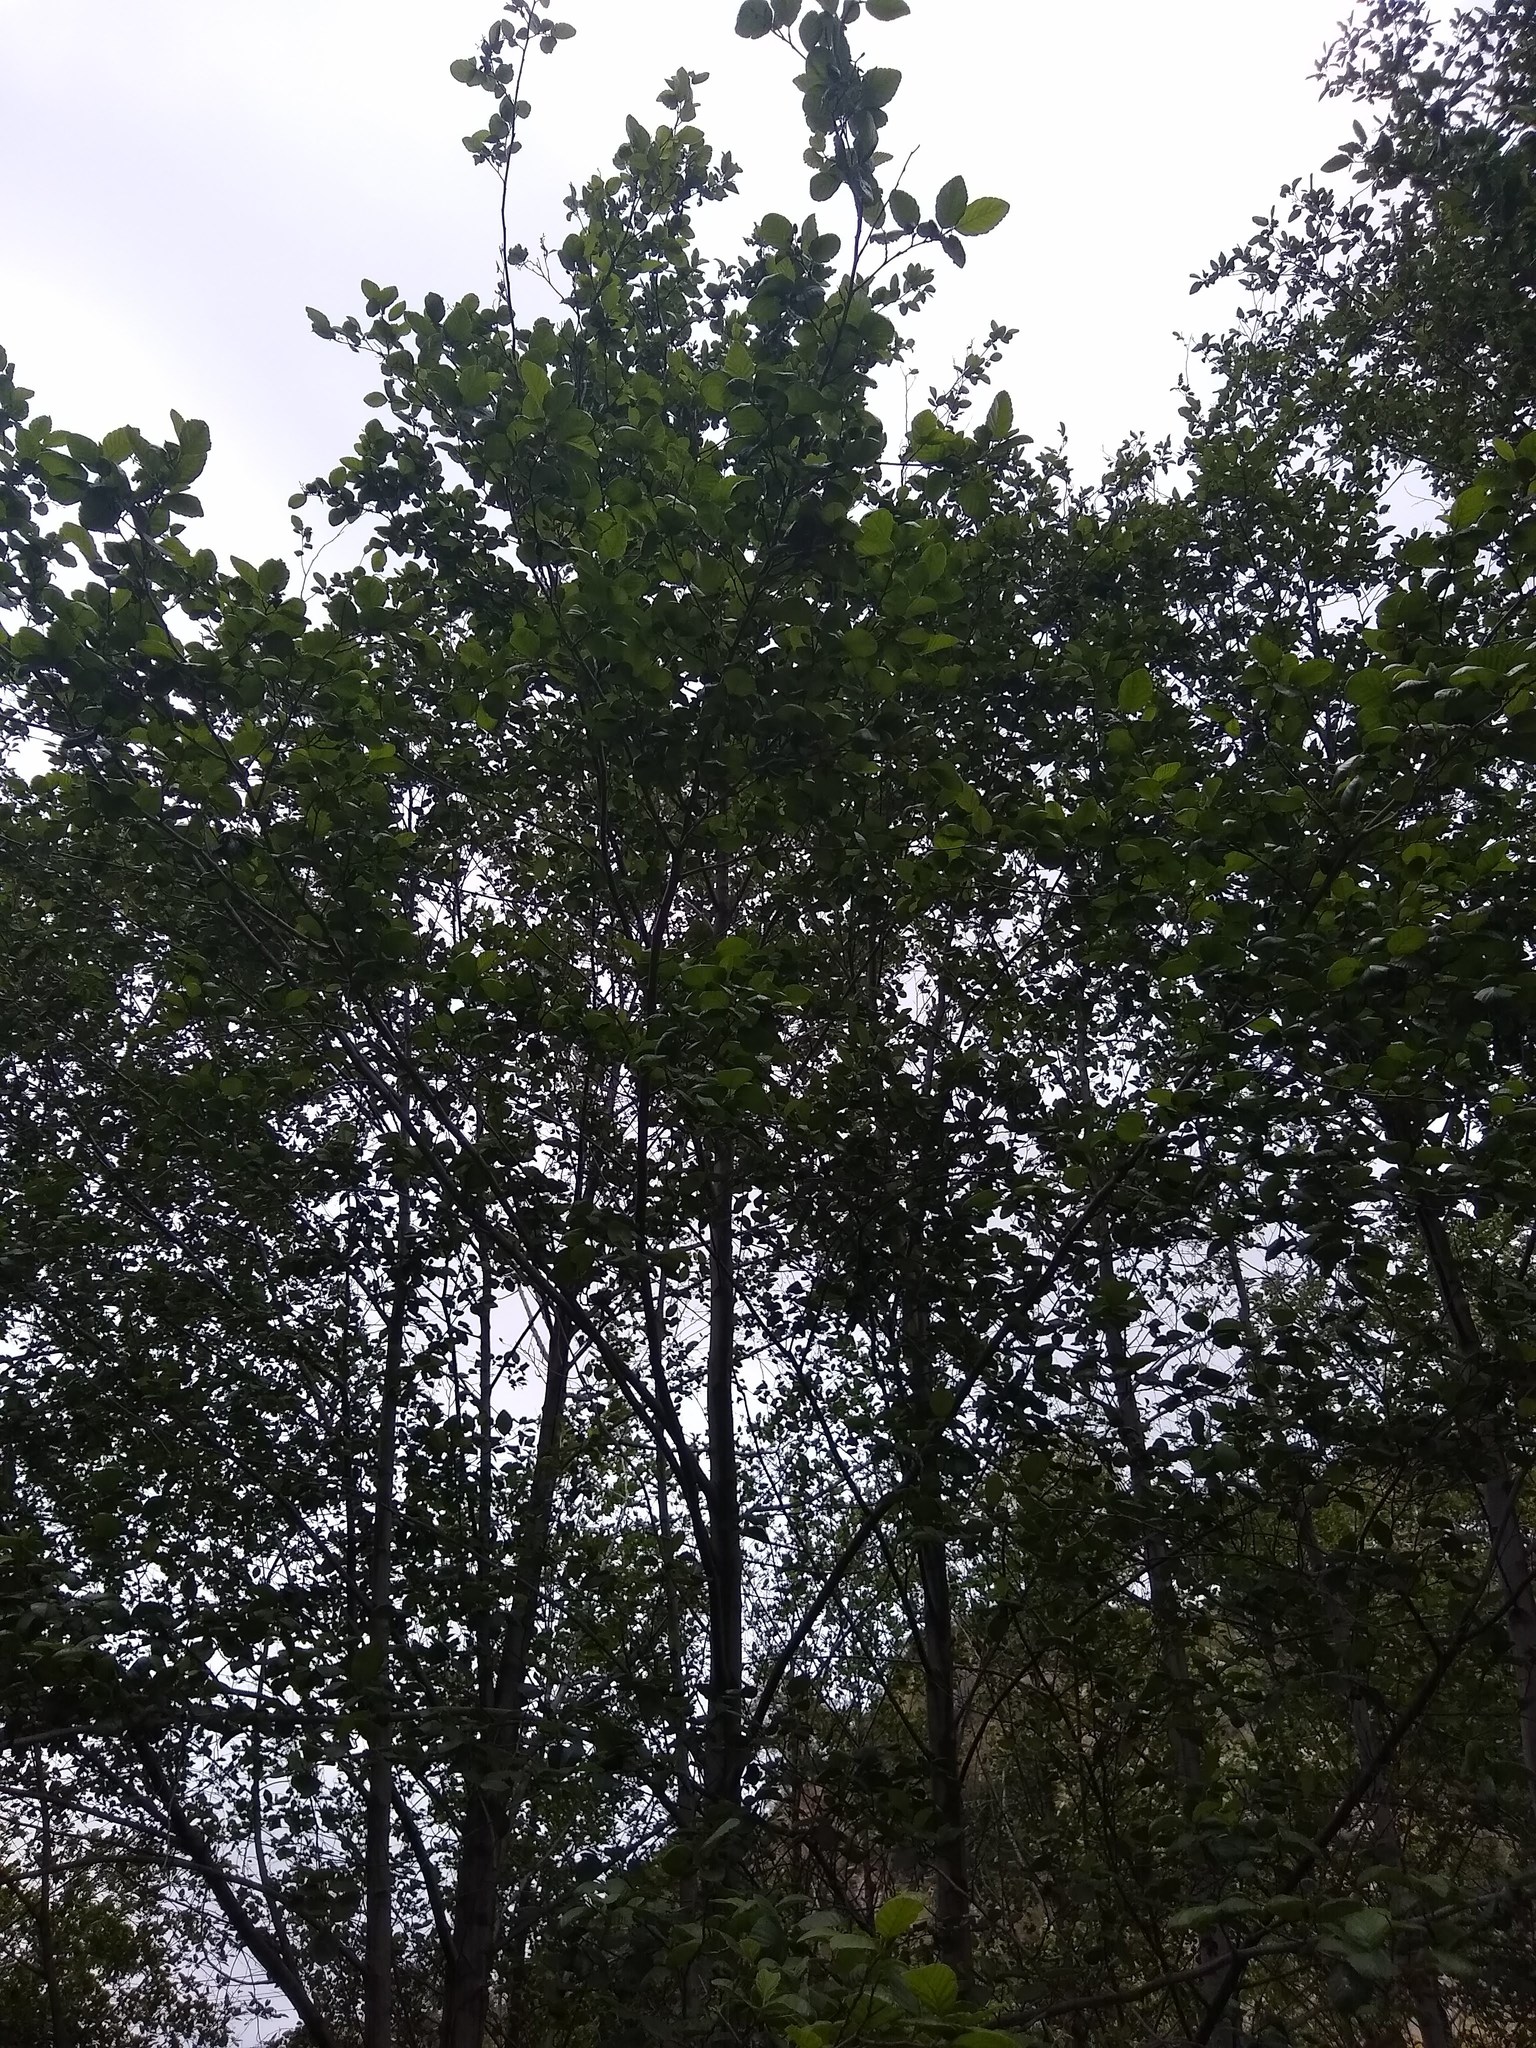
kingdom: Plantae
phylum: Tracheophyta
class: Magnoliopsida
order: Fagales
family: Betulaceae
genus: Alnus
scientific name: Alnus rhombifolia
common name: California alder
